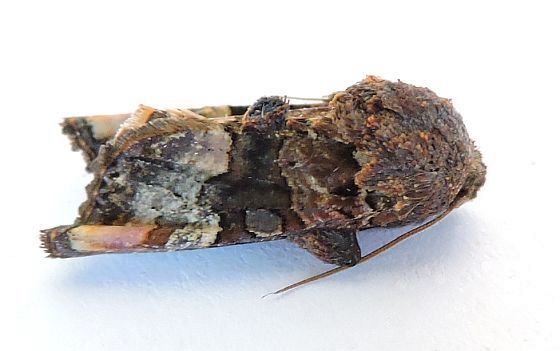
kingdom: Animalia
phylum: Arthropoda
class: Insecta
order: Lepidoptera
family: Noctuidae
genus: Euplexia
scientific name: Euplexia triplaga
